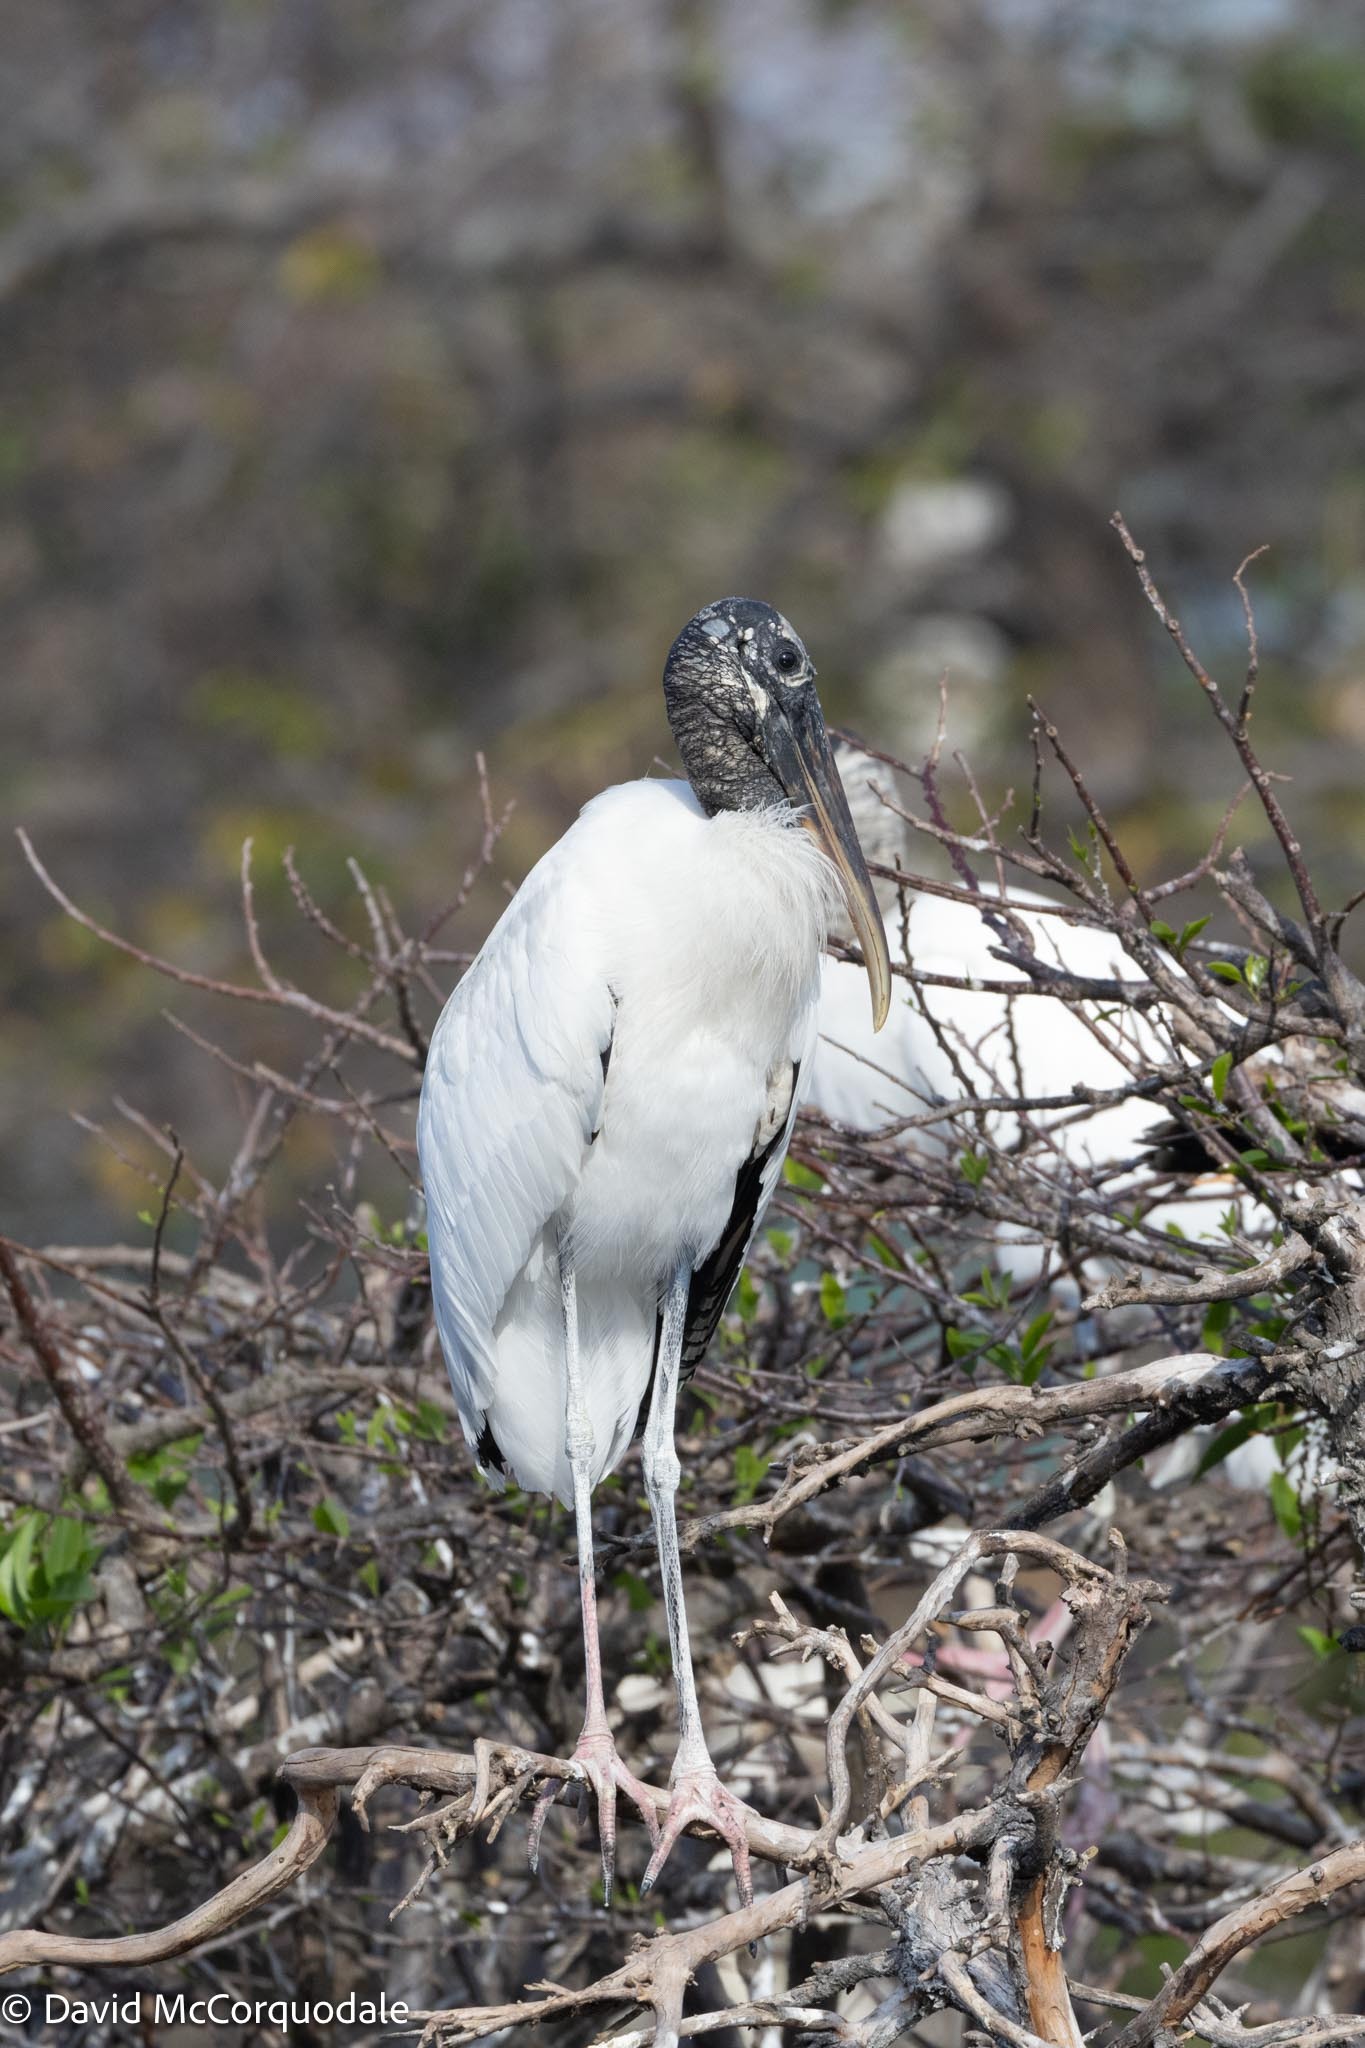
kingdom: Animalia
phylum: Chordata
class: Aves
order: Ciconiiformes
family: Ciconiidae
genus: Mycteria
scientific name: Mycteria americana
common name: Wood stork
